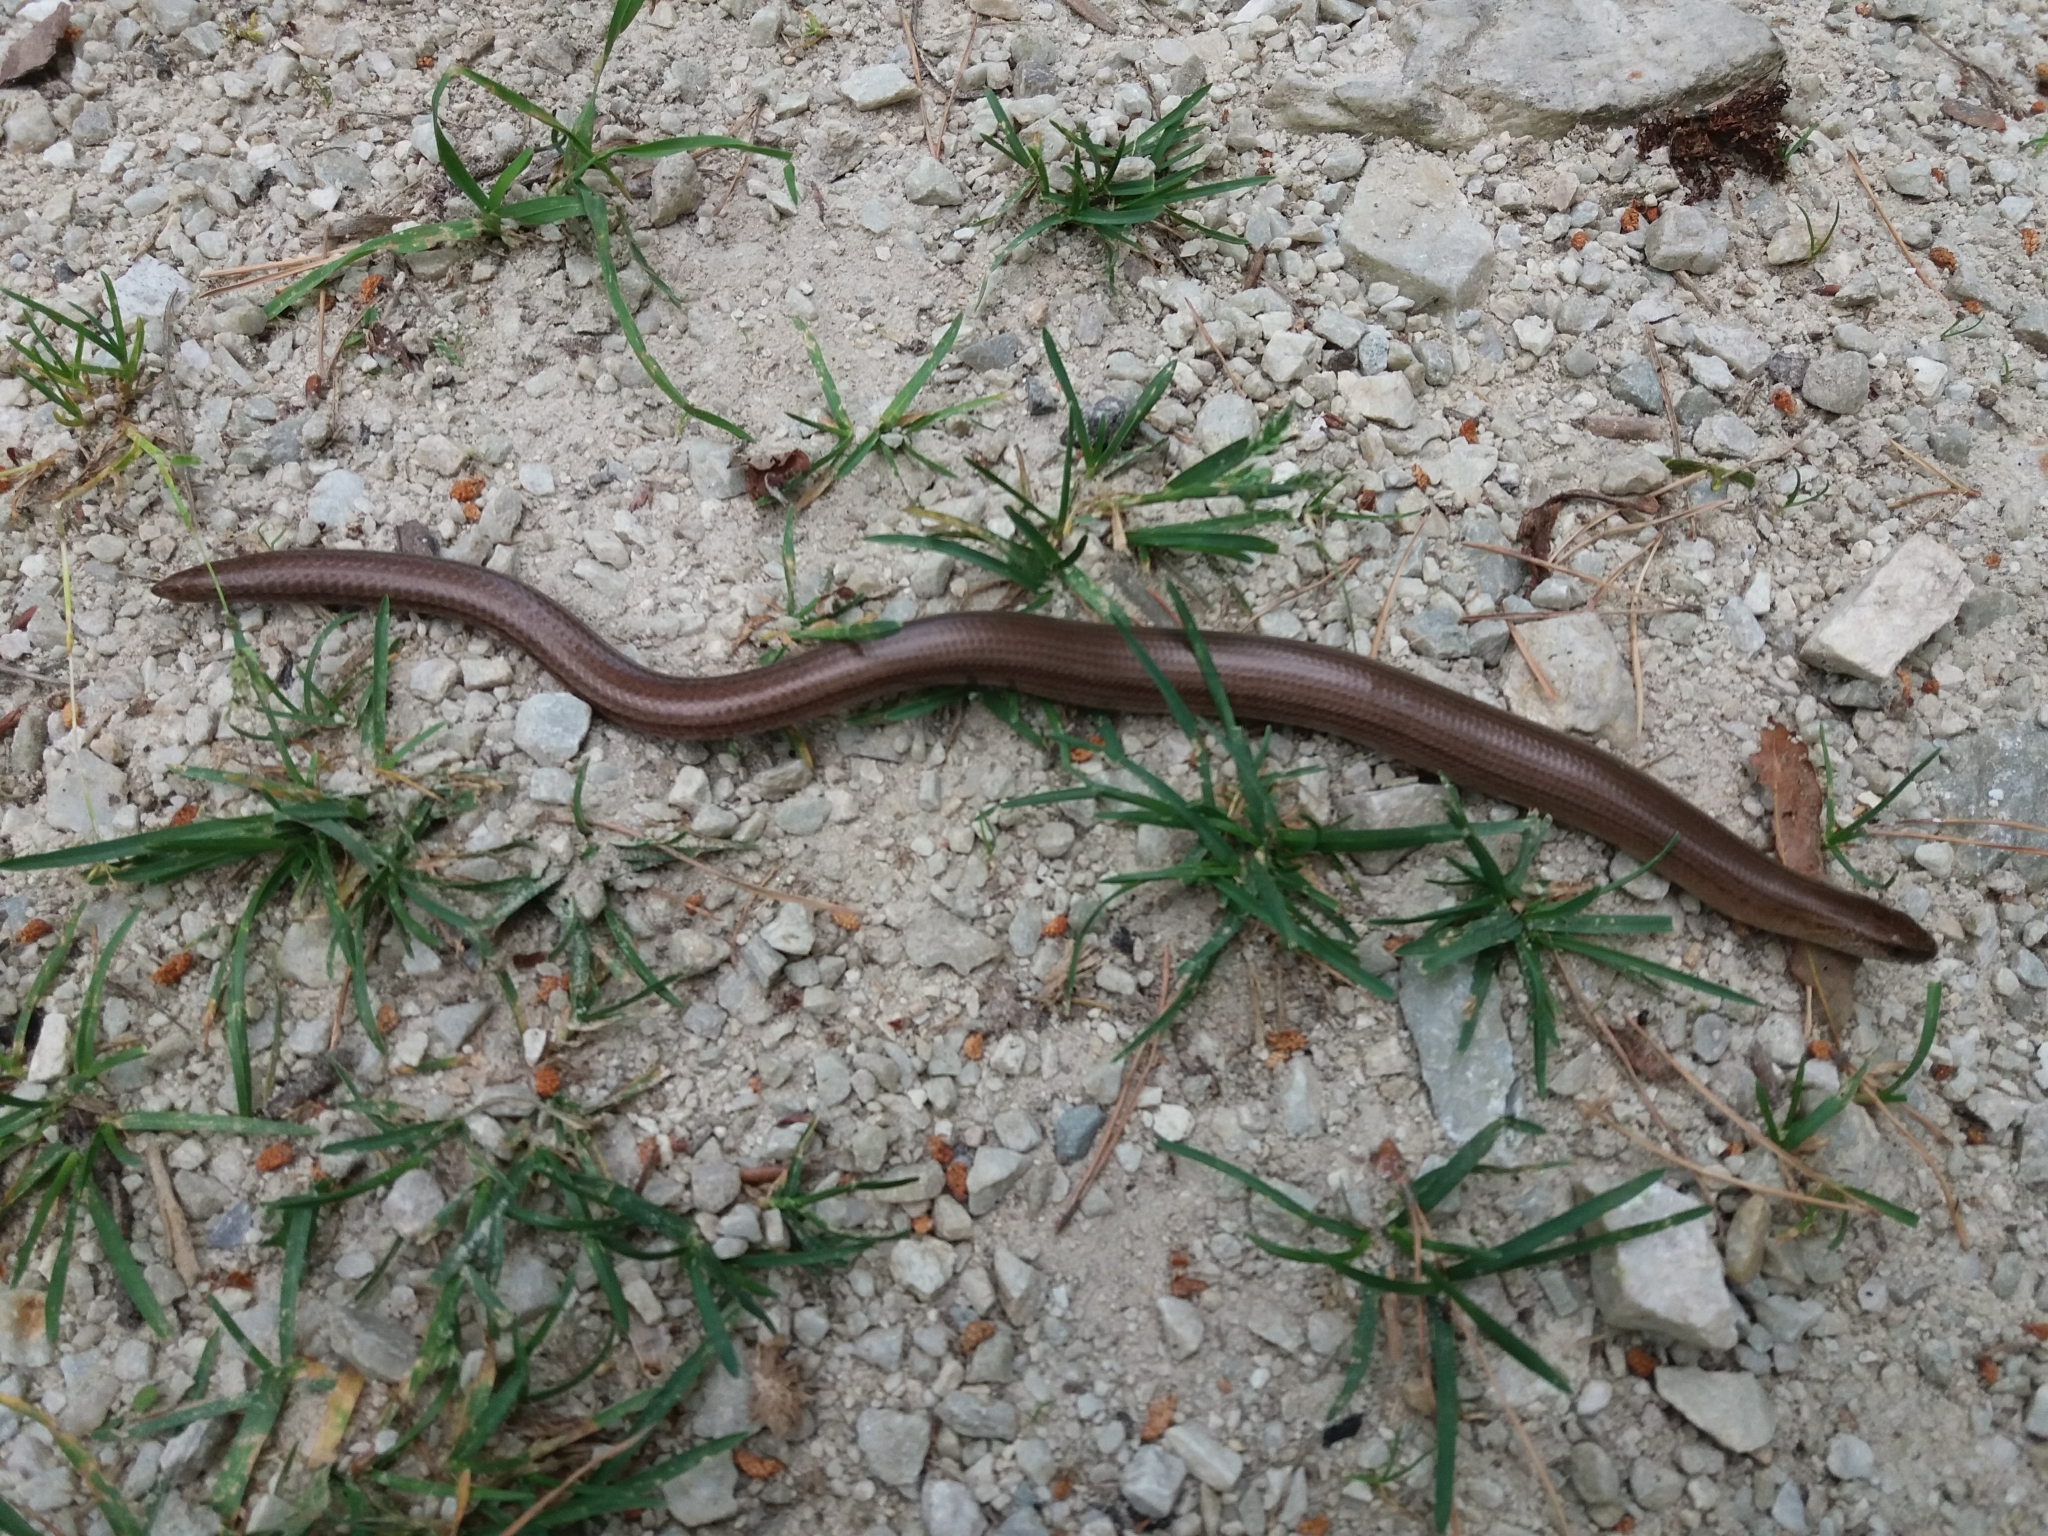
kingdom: Animalia
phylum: Chordata
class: Squamata
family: Anguidae
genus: Anguis
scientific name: Anguis fragilis
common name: Slow worm
